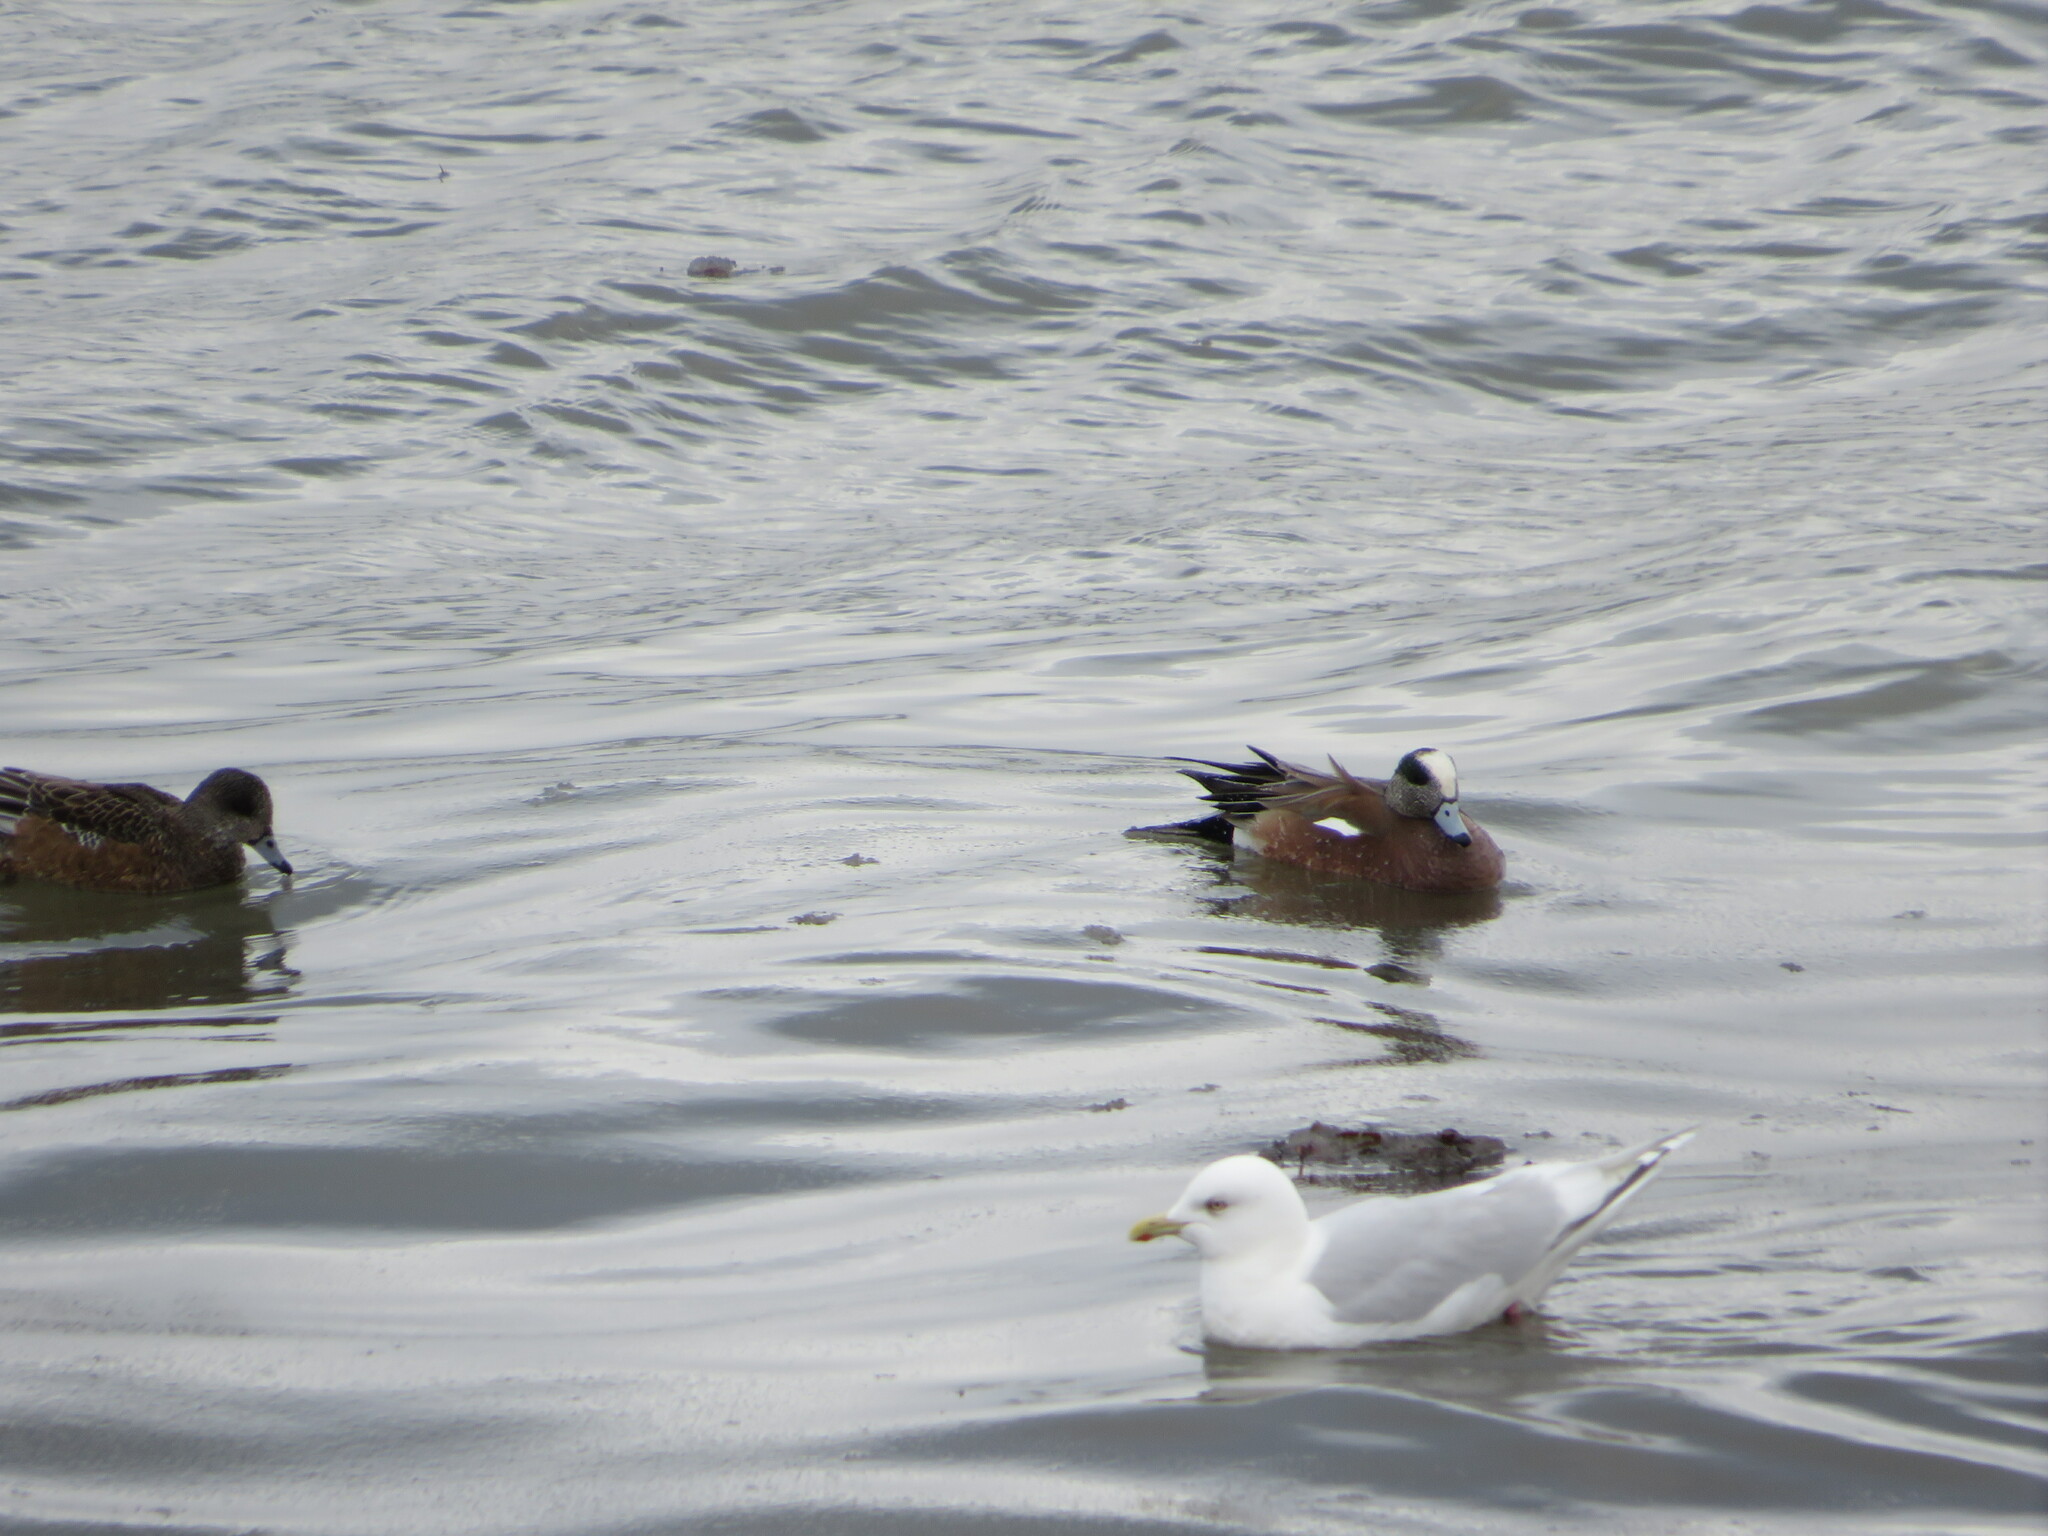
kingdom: Animalia
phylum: Chordata
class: Aves
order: Anseriformes
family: Anatidae
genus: Mareca
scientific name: Mareca americana
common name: American wigeon
